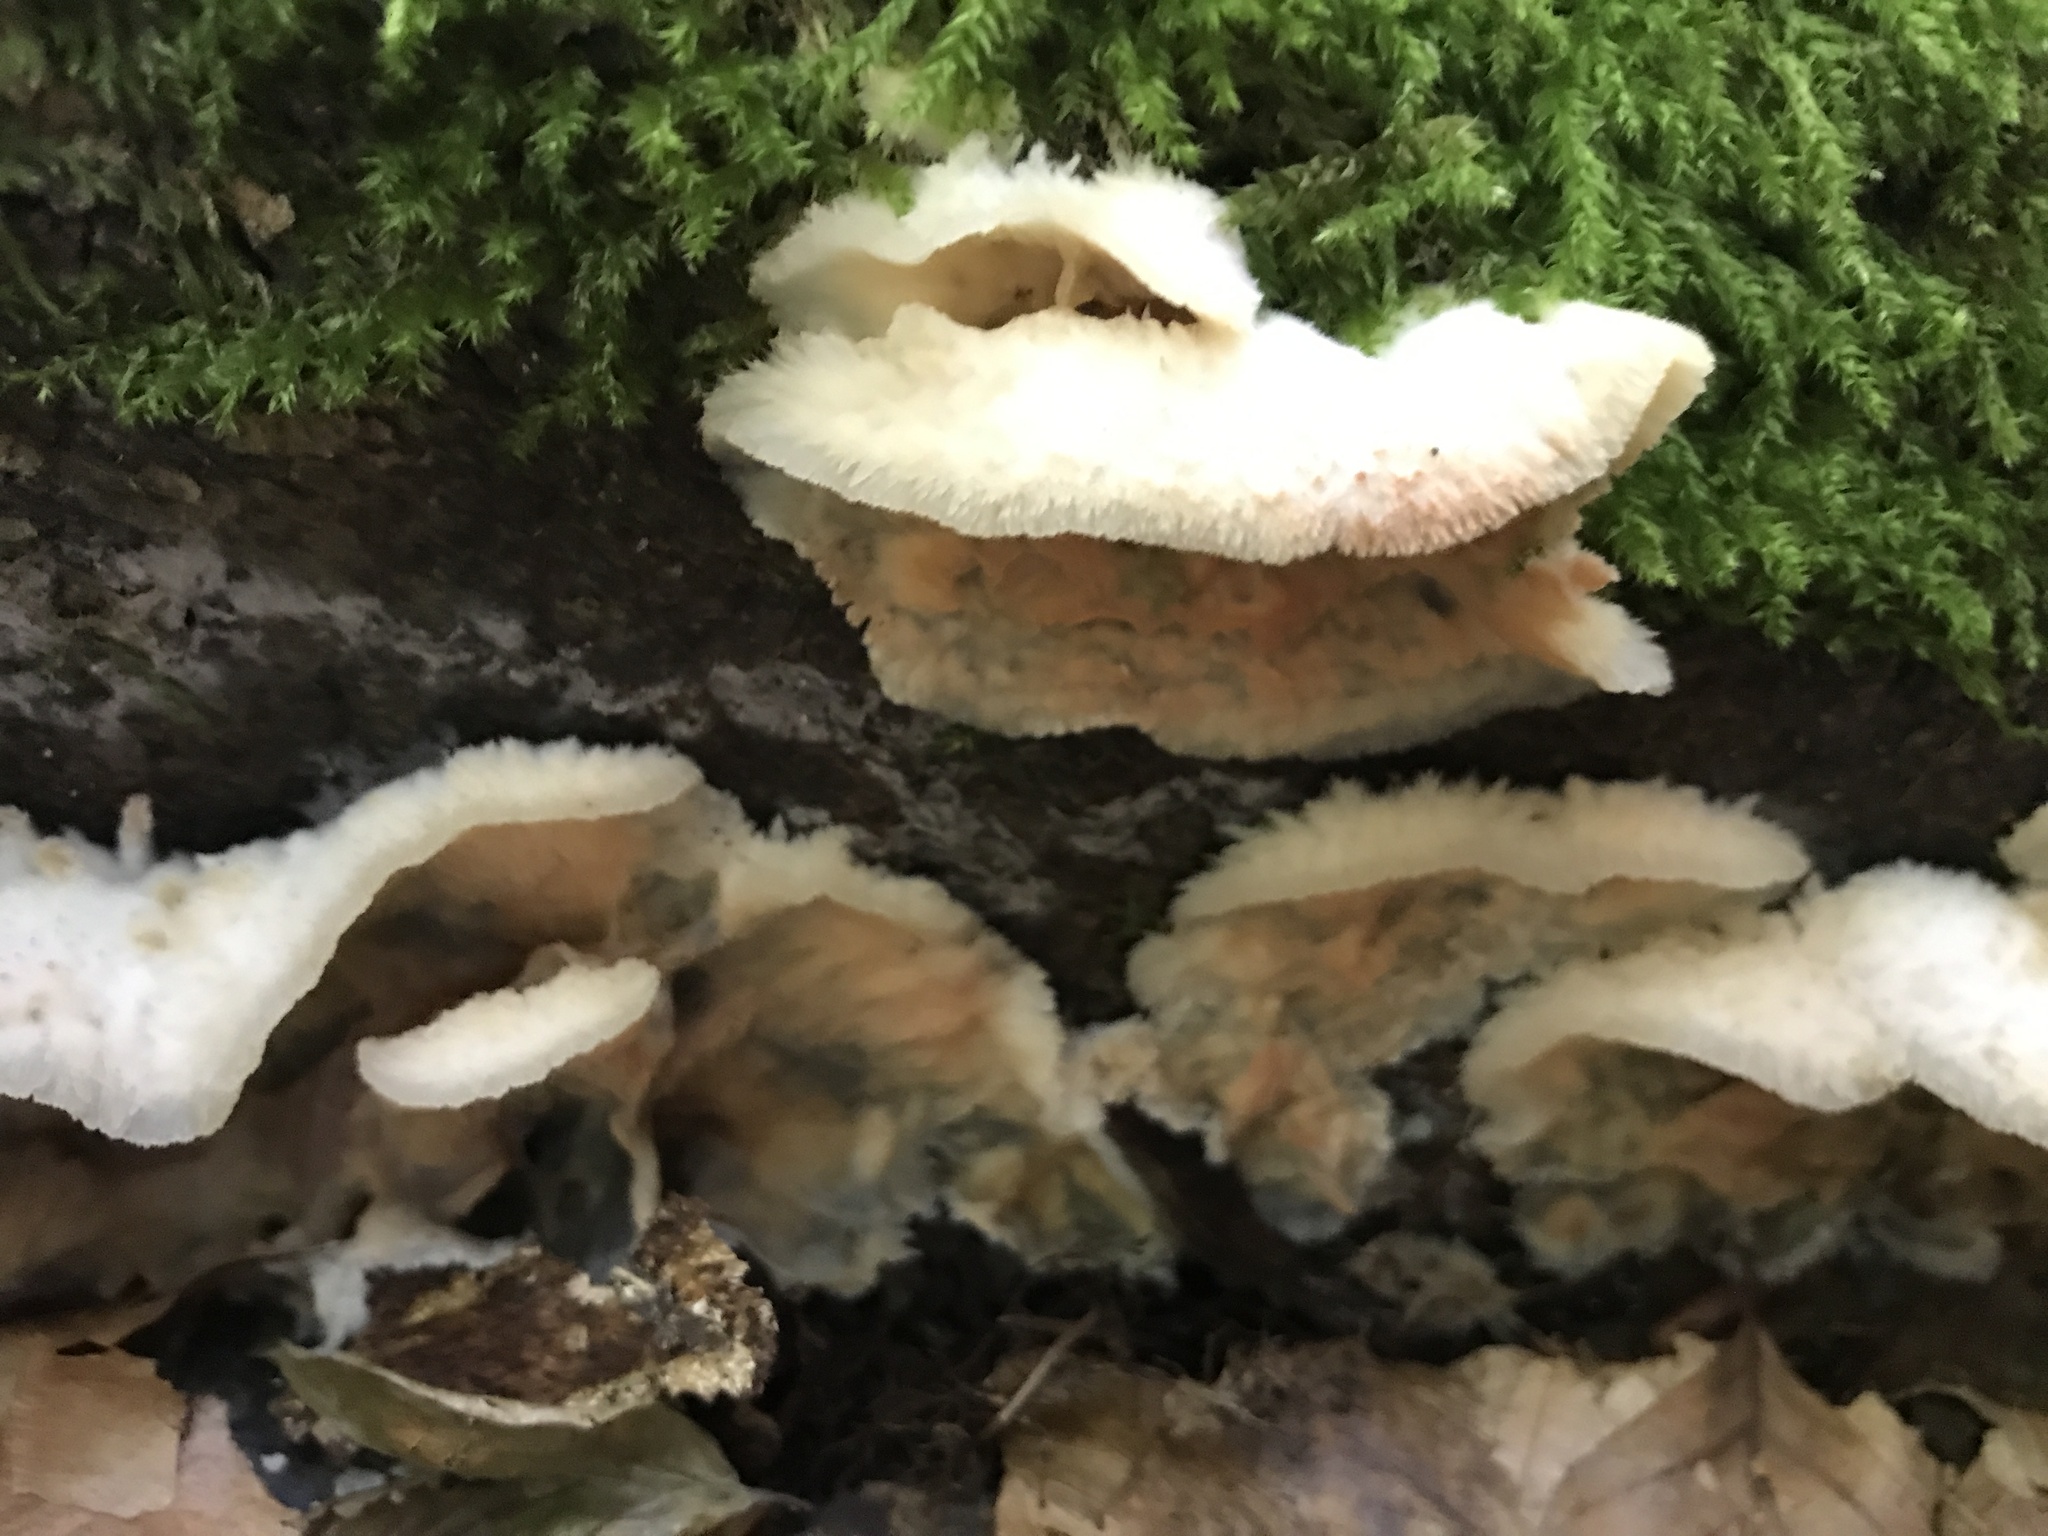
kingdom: Fungi
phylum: Basidiomycota
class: Agaricomycetes
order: Polyporales
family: Meruliaceae
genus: Phlebia
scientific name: Phlebia tremellosa
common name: Jelly rot
